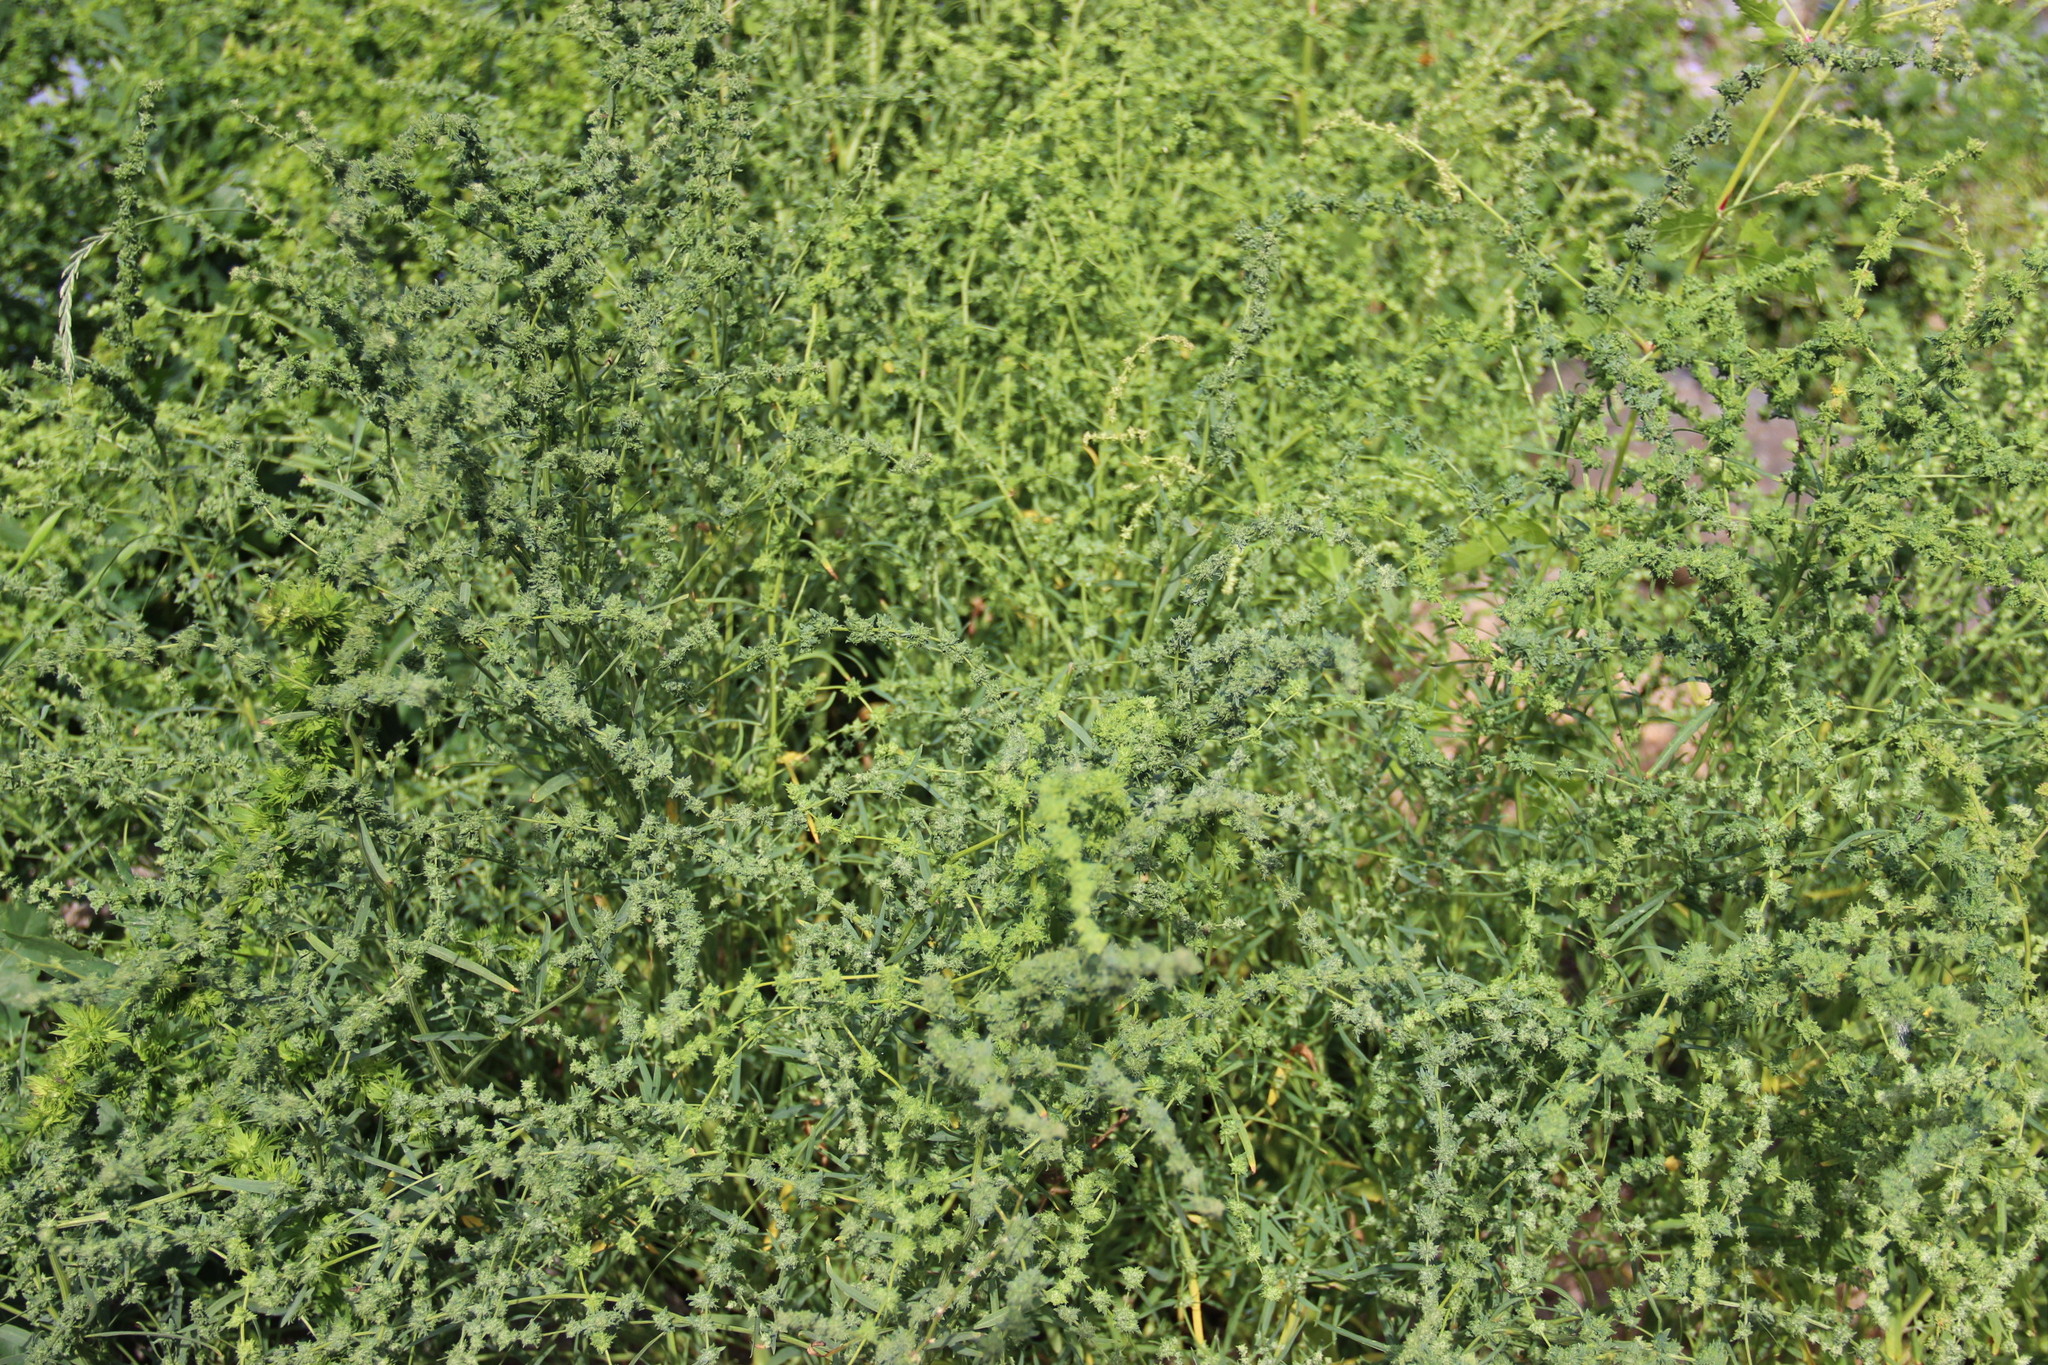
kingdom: Plantae
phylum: Tracheophyta
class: Magnoliopsida
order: Caryophyllales
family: Amaranthaceae
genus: Atriplex
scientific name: Atriplex littoralis
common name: Grass-leaved orache
